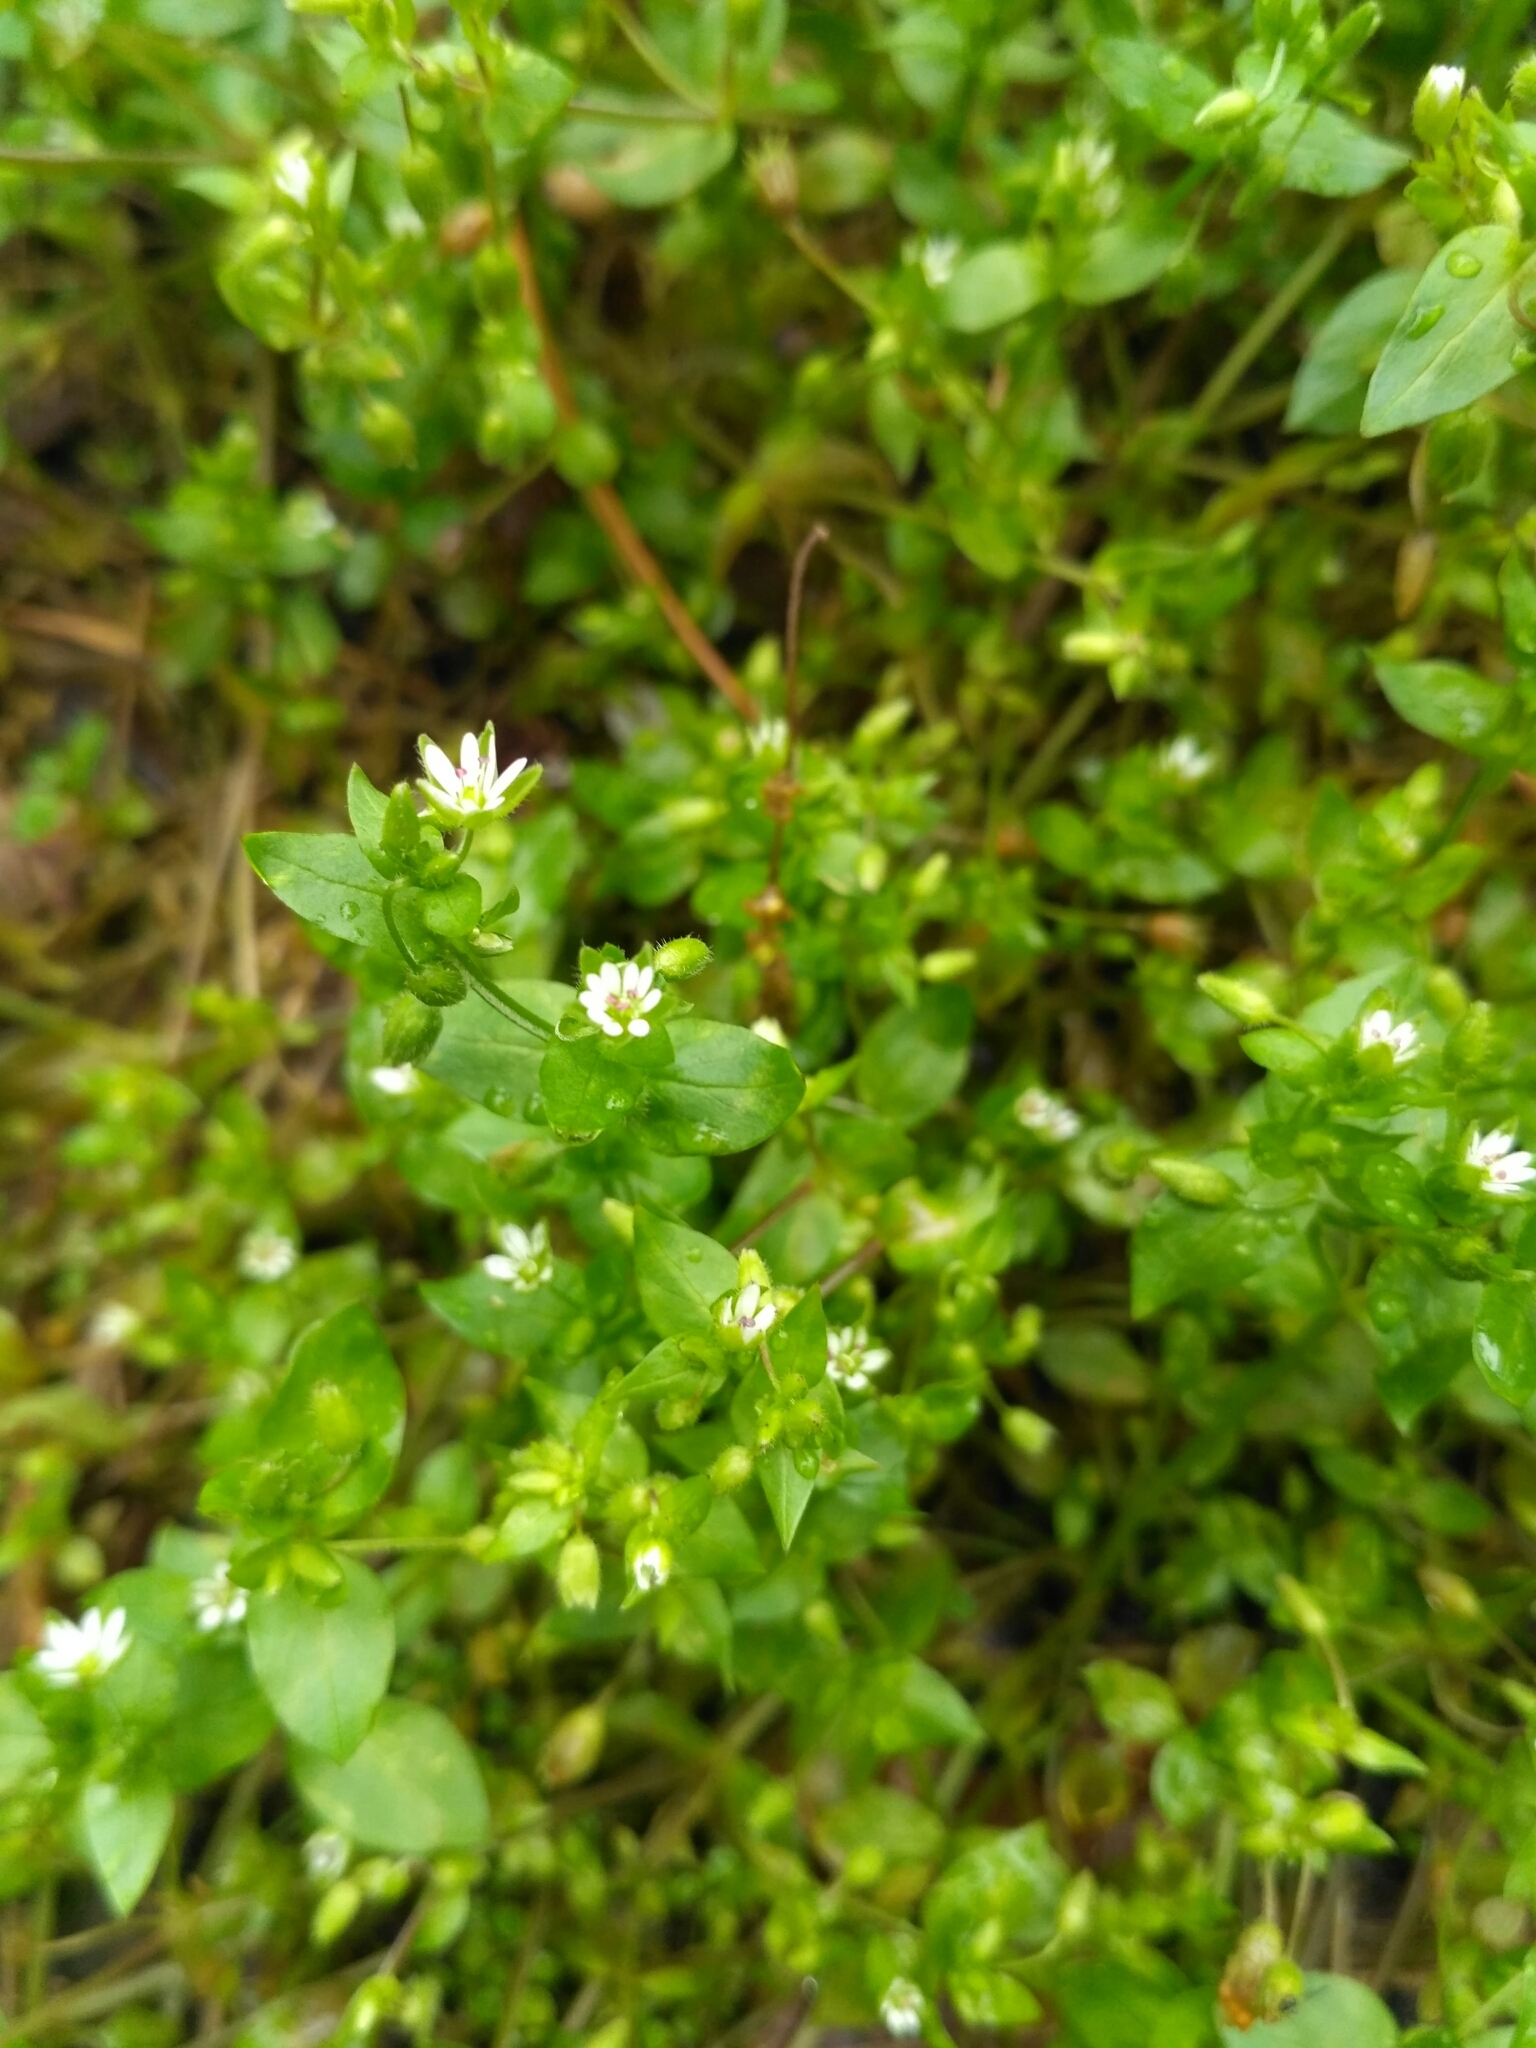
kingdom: Plantae
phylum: Tracheophyta
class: Magnoliopsida
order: Caryophyllales
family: Caryophyllaceae
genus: Stellaria
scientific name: Stellaria media
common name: Common chickweed
